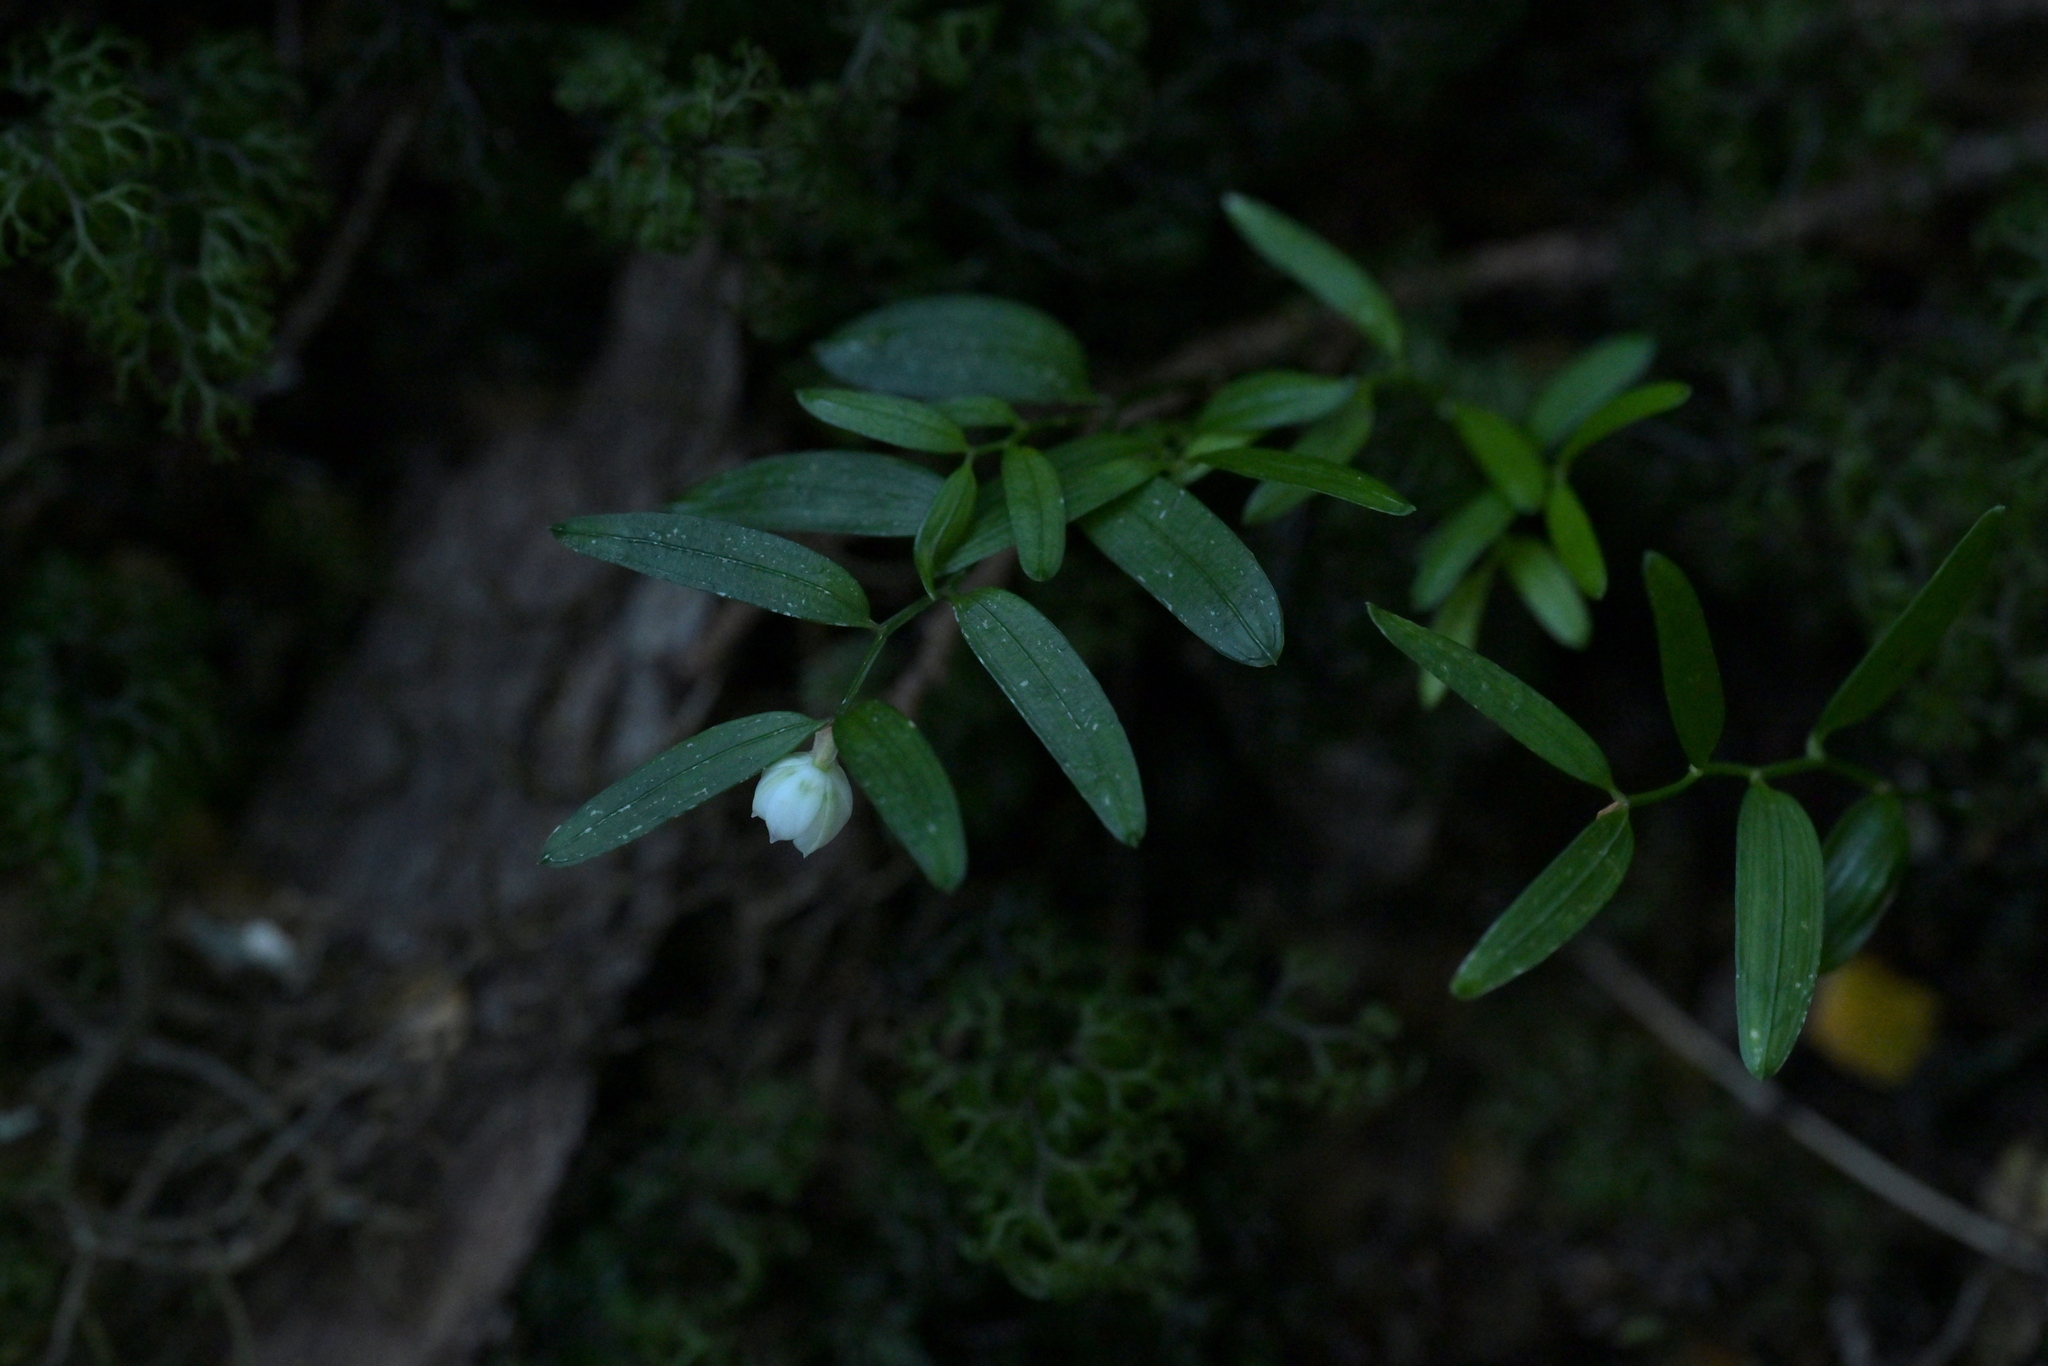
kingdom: Plantae
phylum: Tracheophyta
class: Liliopsida
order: Liliales
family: Alstroemeriaceae
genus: Luzuriaga
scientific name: Luzuriaga parviflora
